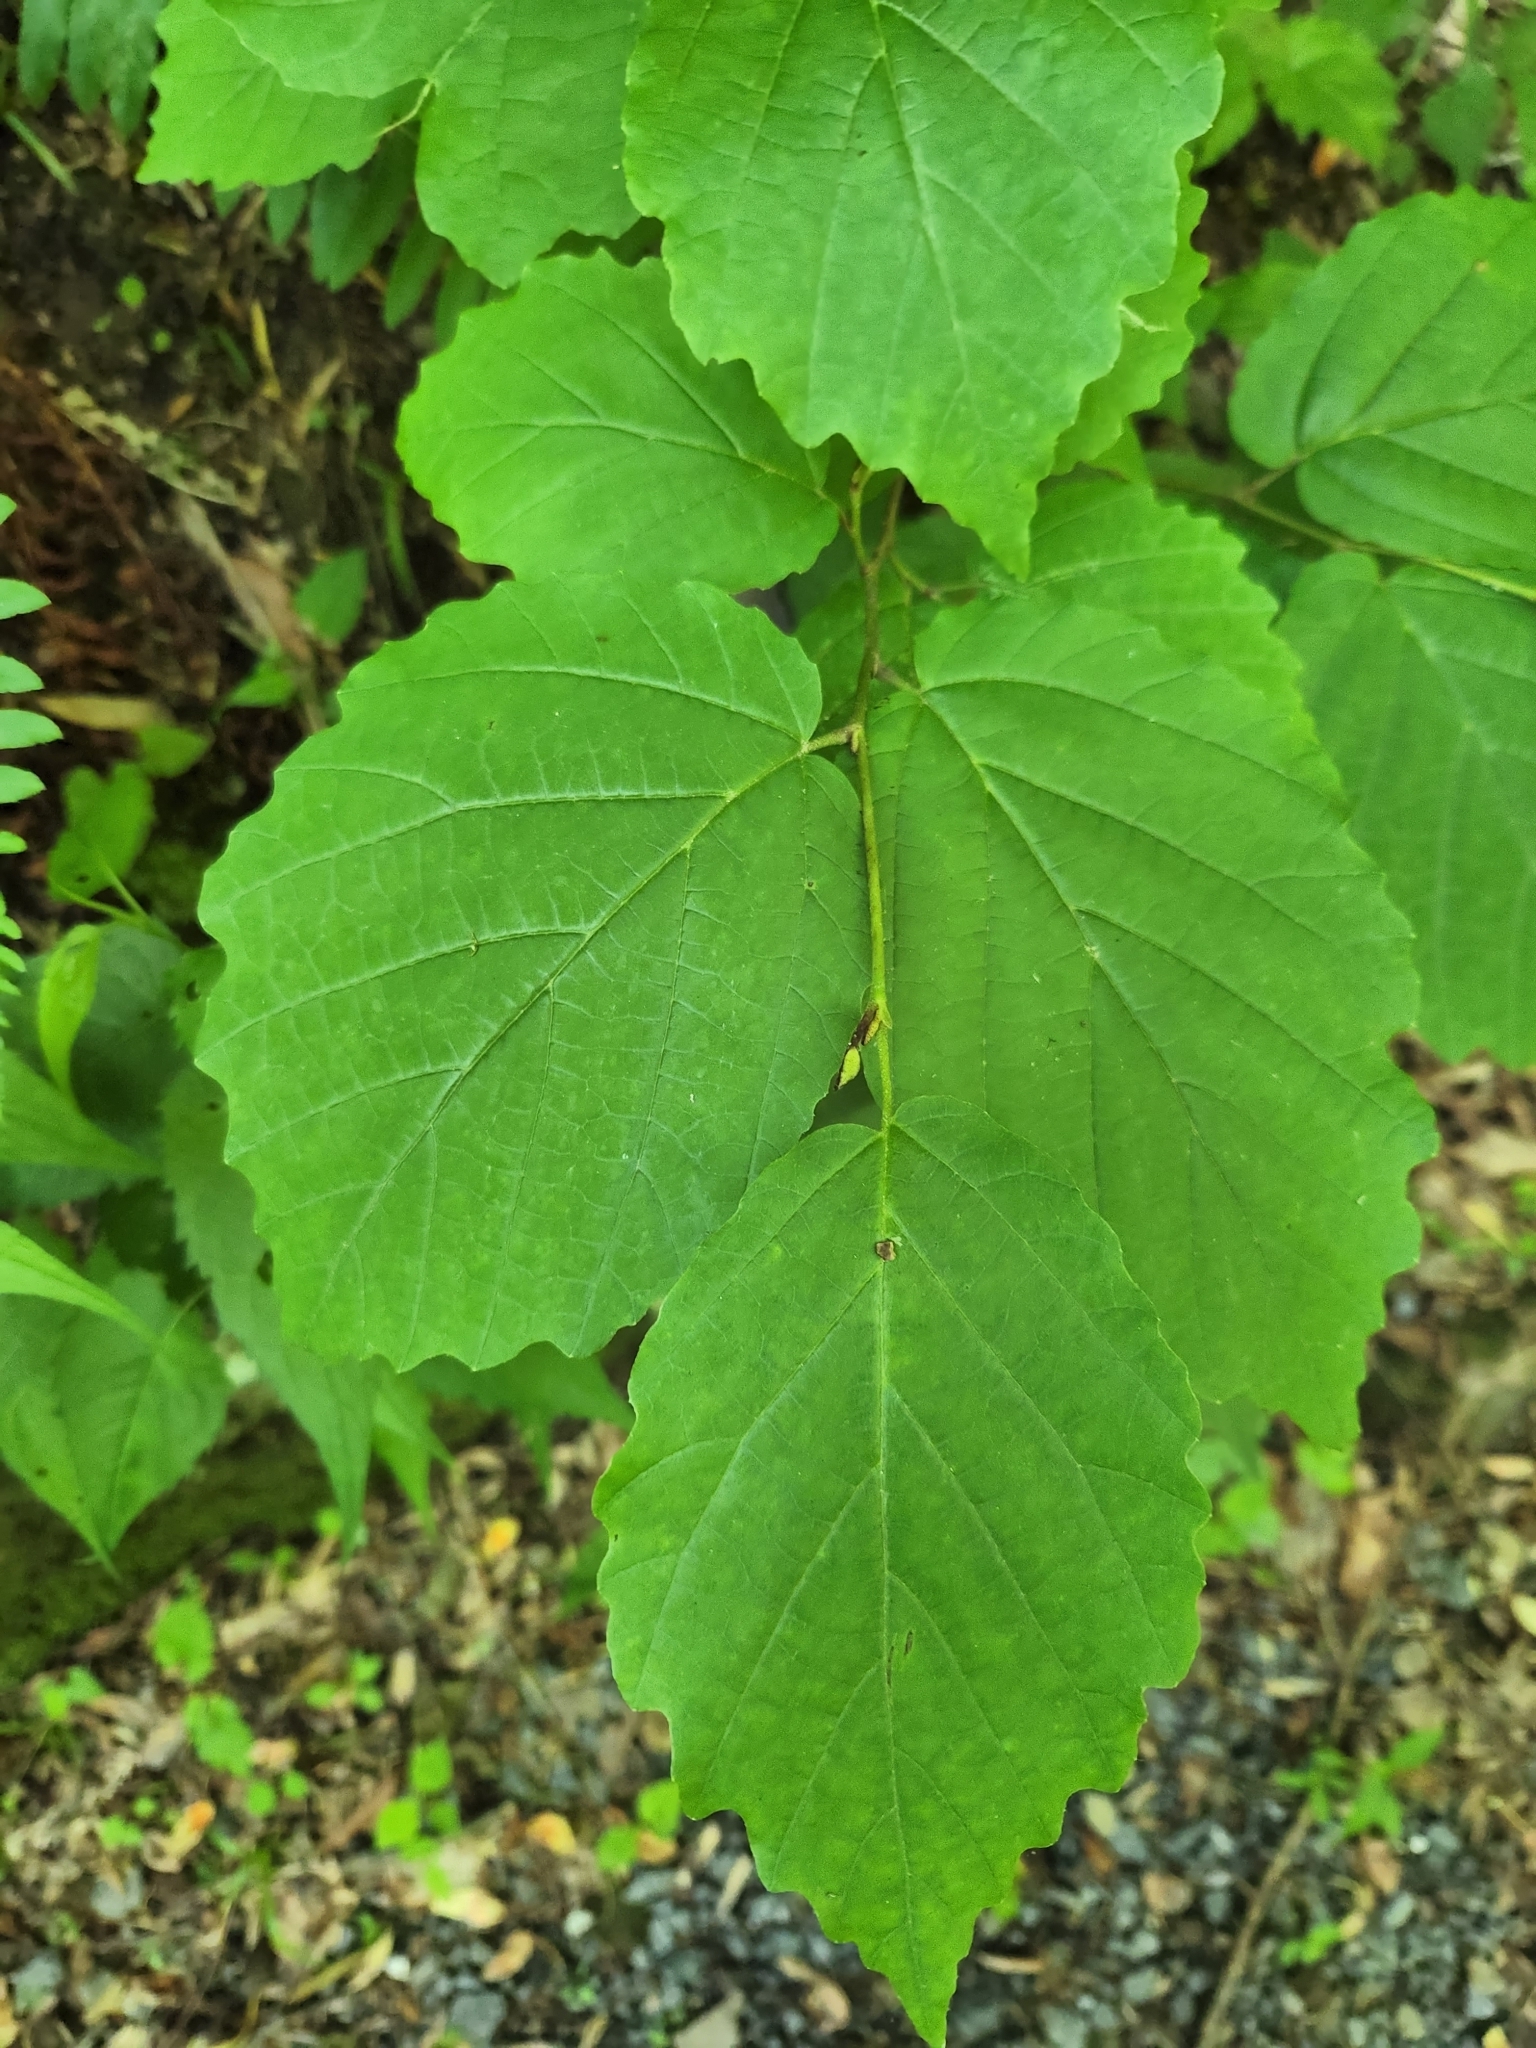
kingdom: Plantae
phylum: Tracheophyta
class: Magnoliopsida
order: Saxifragales
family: Hamamelidaceae
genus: Hamamelis
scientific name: Hamamelis virginiana
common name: Witch-hazel
